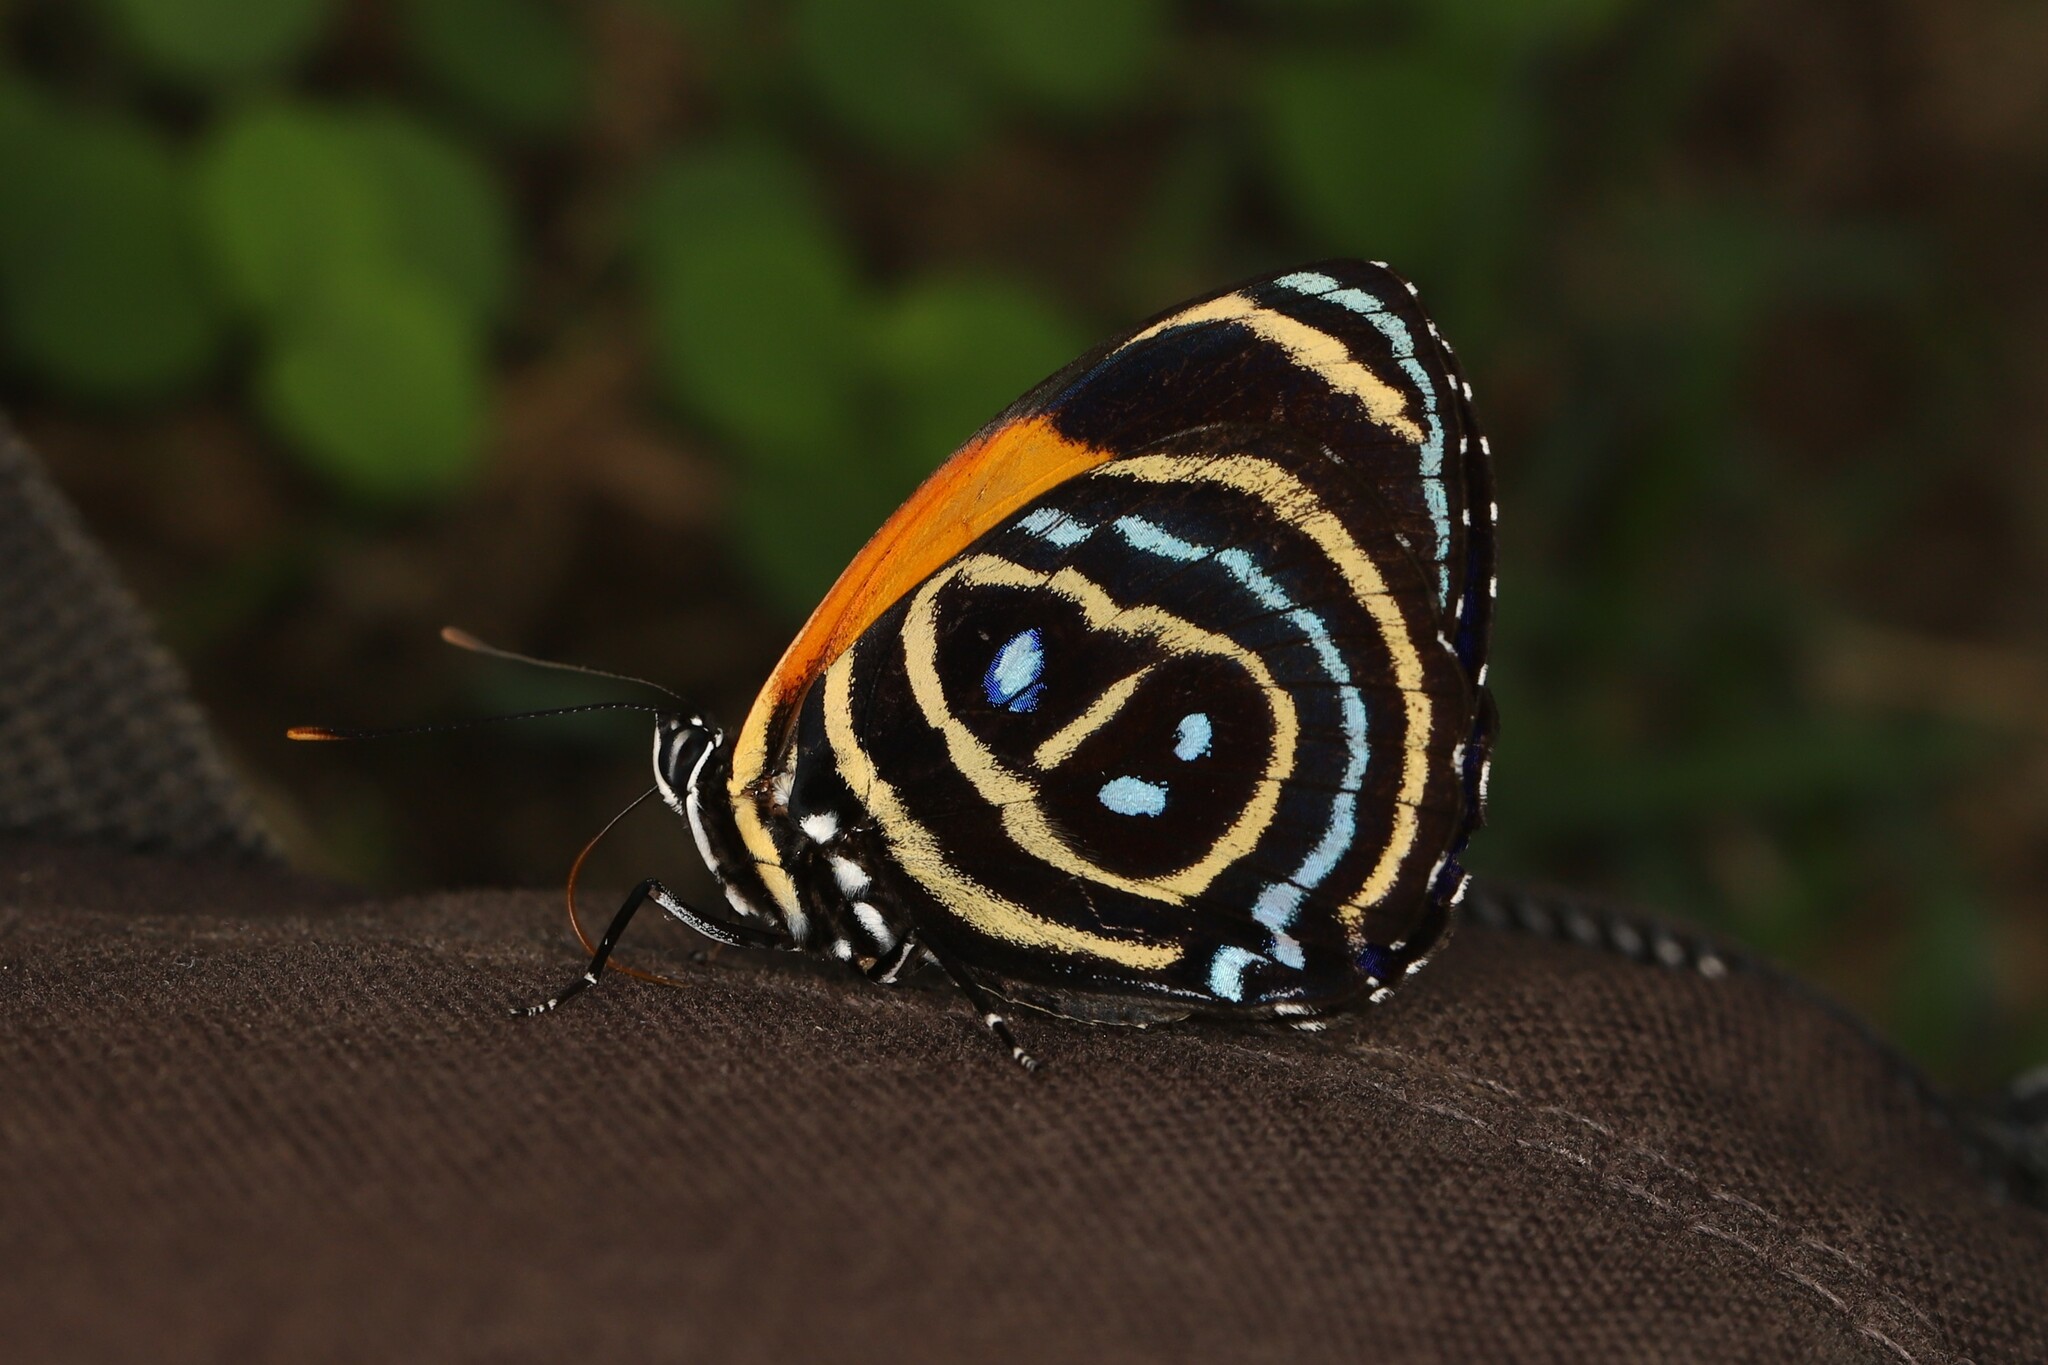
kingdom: Animalia
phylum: Arthropoda
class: Insecta
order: Lepidoptera
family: Nymphalidae
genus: Catagramma
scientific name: Catagramma Callicore excelsior
